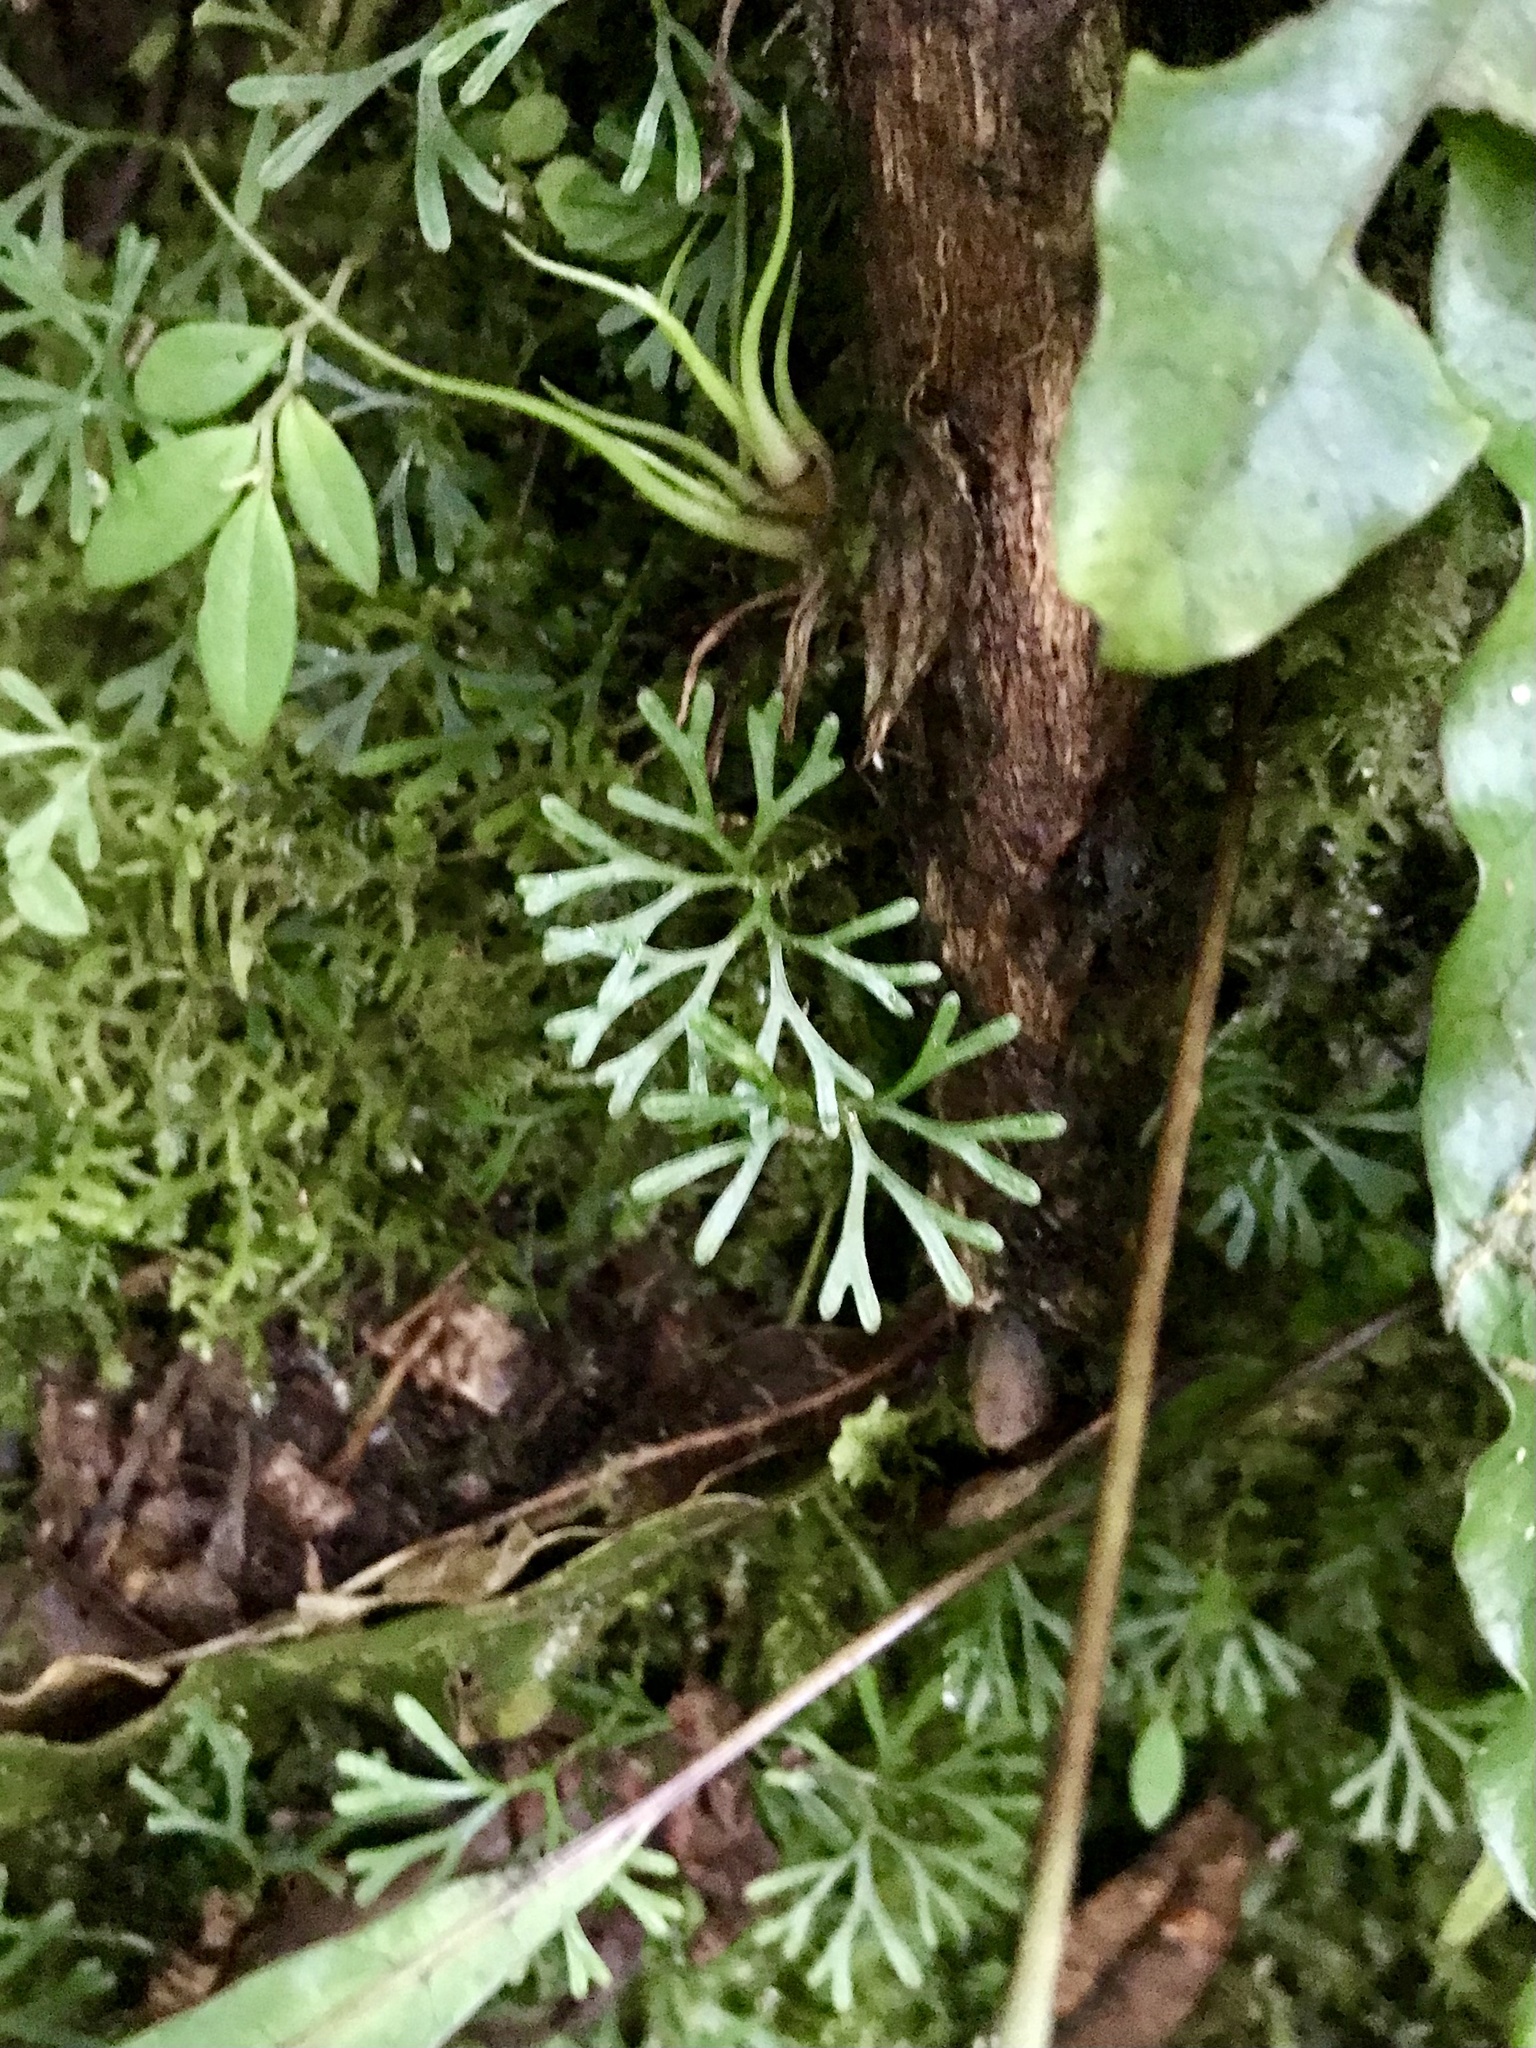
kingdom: Plantae
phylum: Tracheophyta
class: Polypodiopsida
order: Polypodiales
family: Dryopteridaceae
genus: Elaphoglossum
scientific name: Elaphoglossum peltatum
